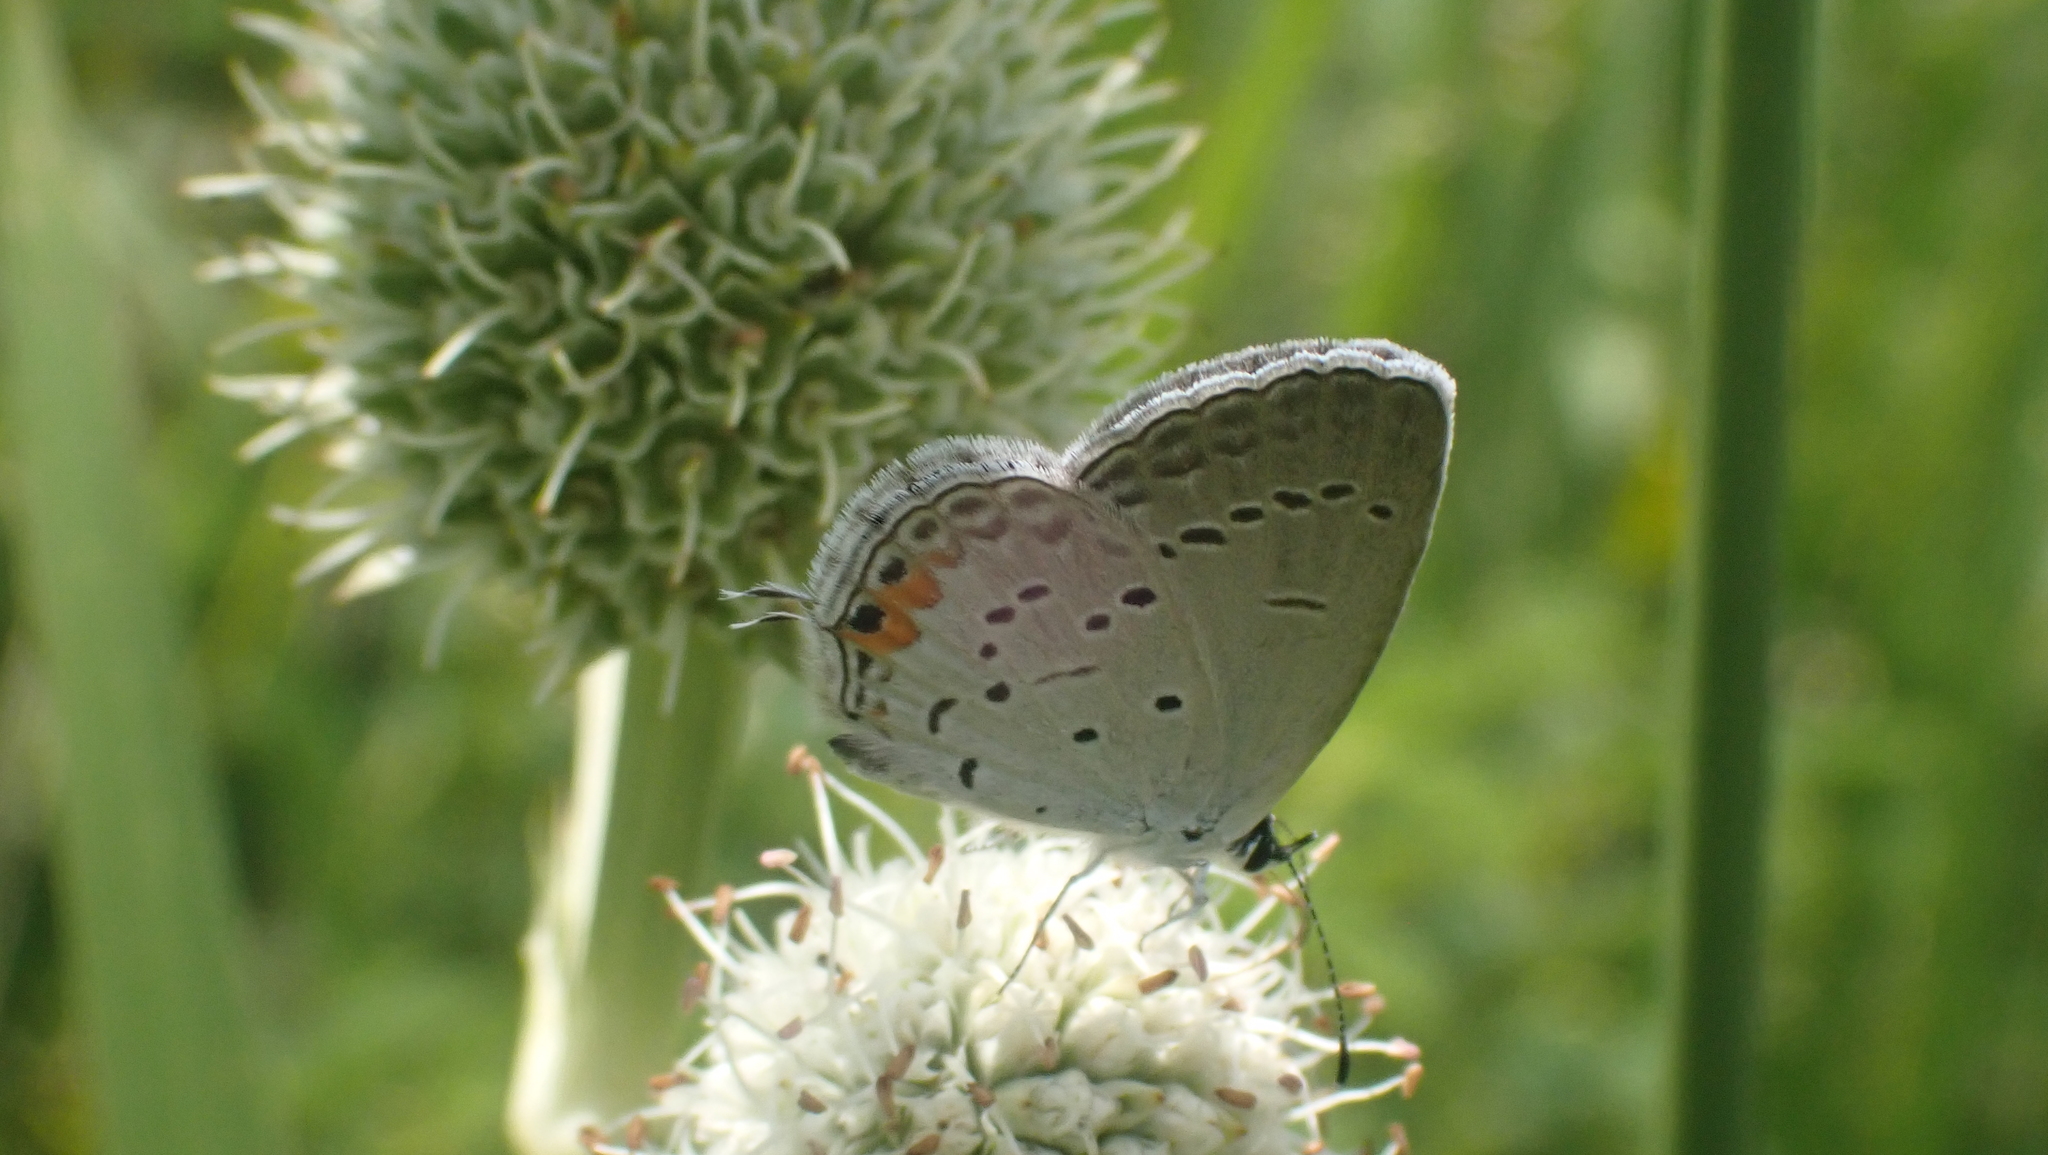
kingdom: Animalia
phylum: Arthropoda
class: Insecta
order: Lepidoptera
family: Lycaenidae
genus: Elkalyce
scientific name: Elkalyce comyntas
